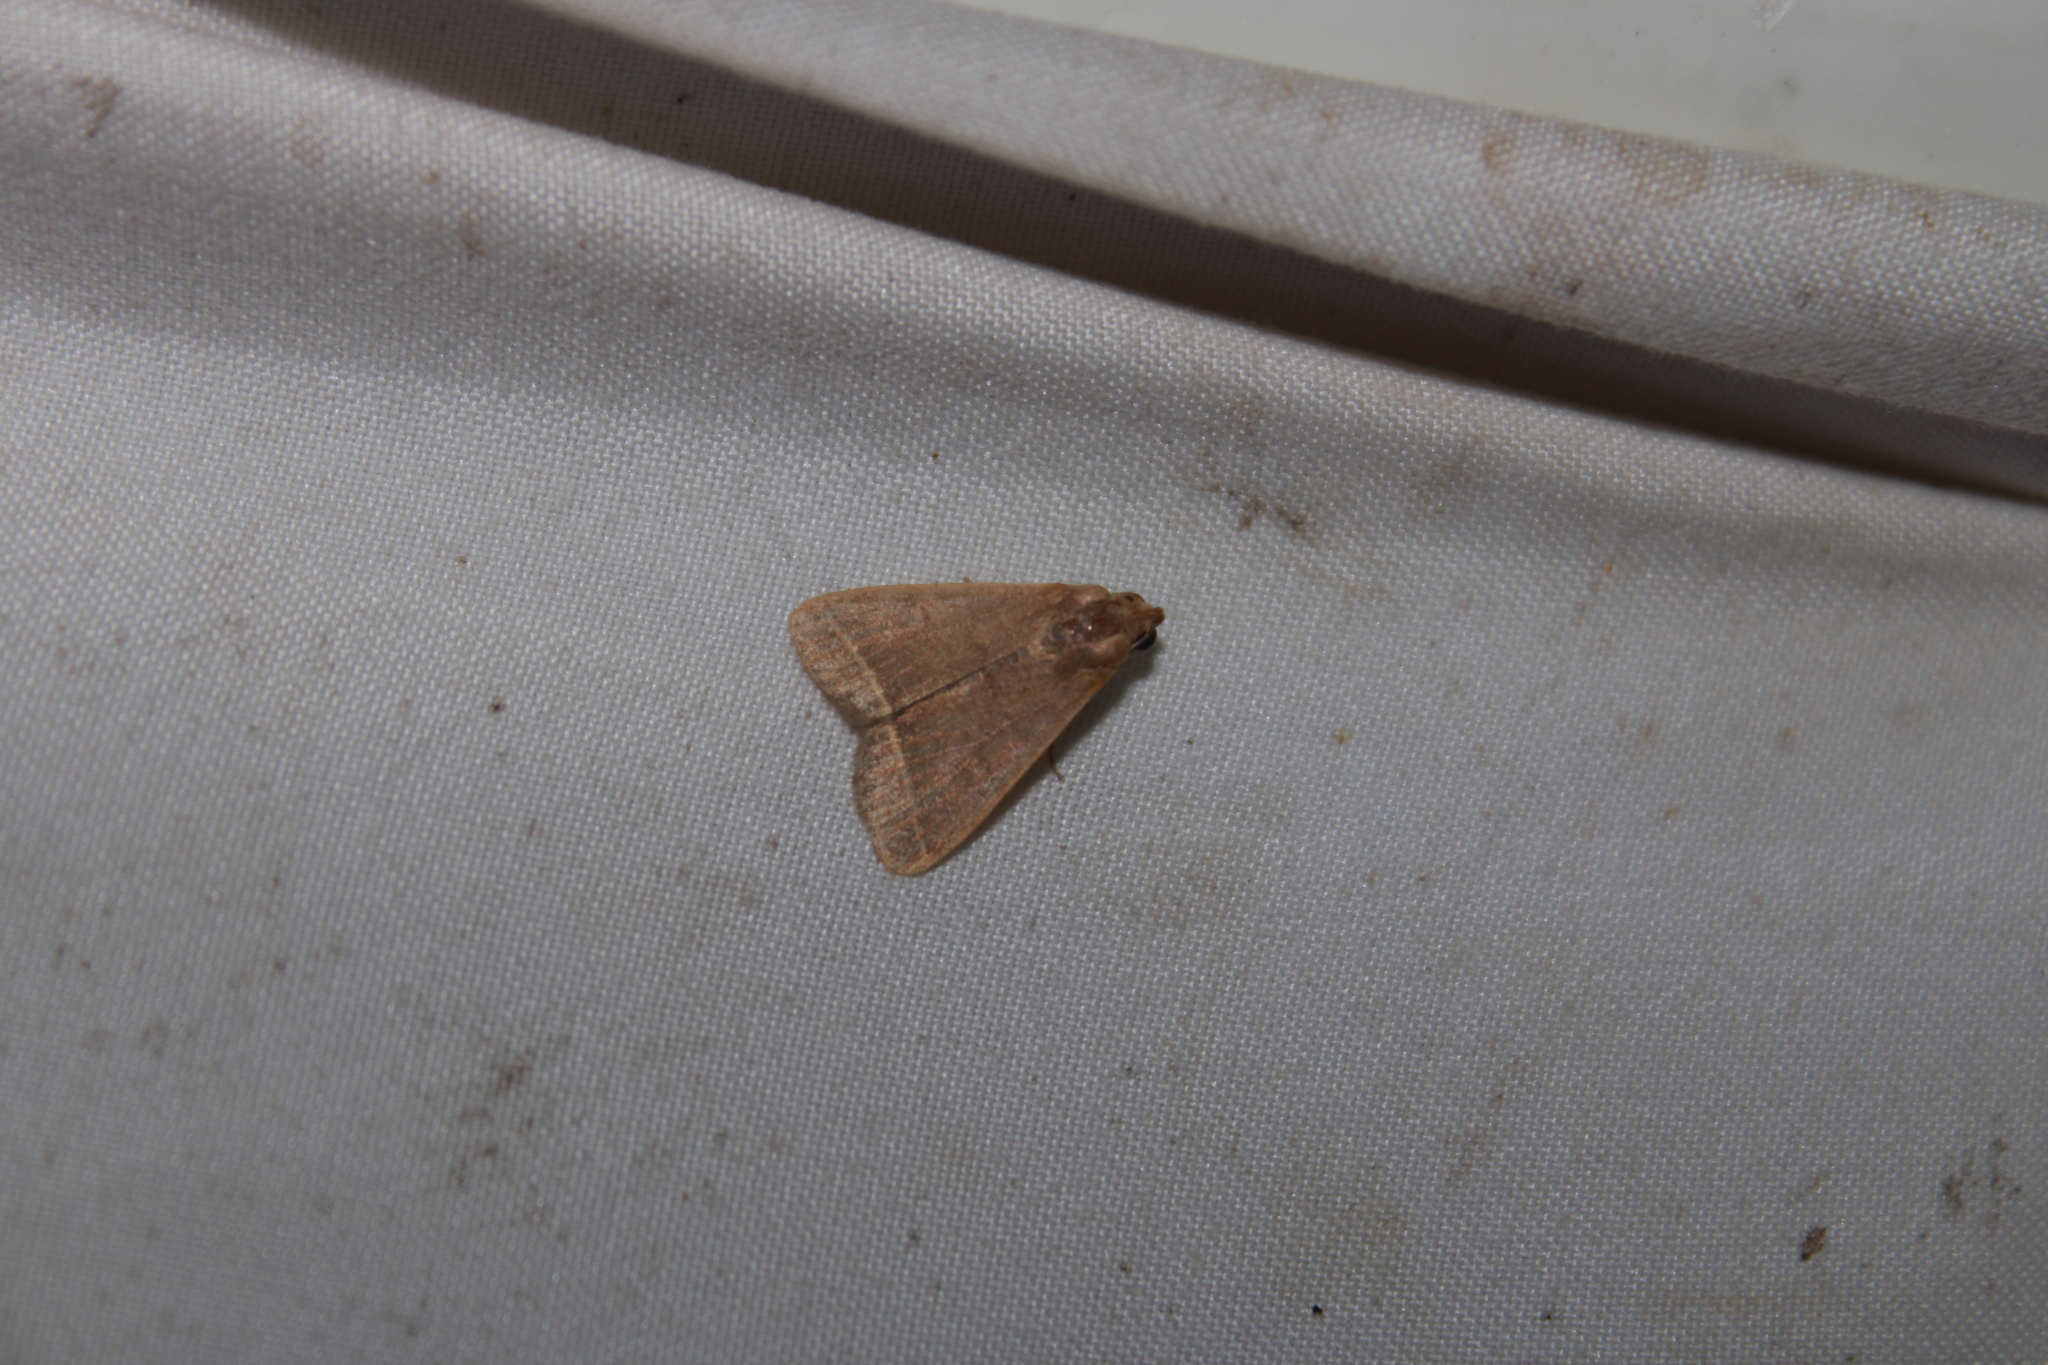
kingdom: Animalia
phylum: Arthropoda
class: Insecta
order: Lepidoptera
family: Erebidae
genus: Simplicia
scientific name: Simplicia cornicalis
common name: Tiki hut litter moth
